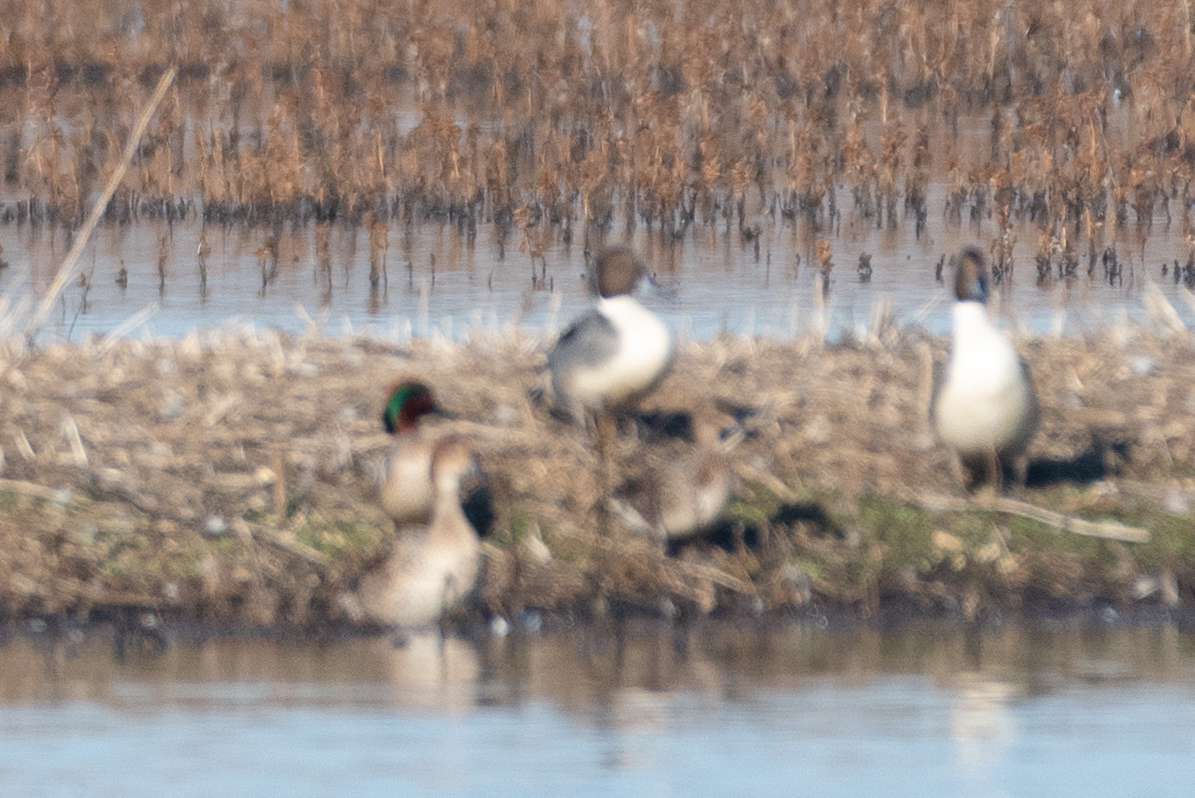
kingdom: Animalia
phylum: Chordata
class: Aves
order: Anseriformes
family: Anatidae
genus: Anas
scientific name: Anas acuta
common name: Northern pintail
